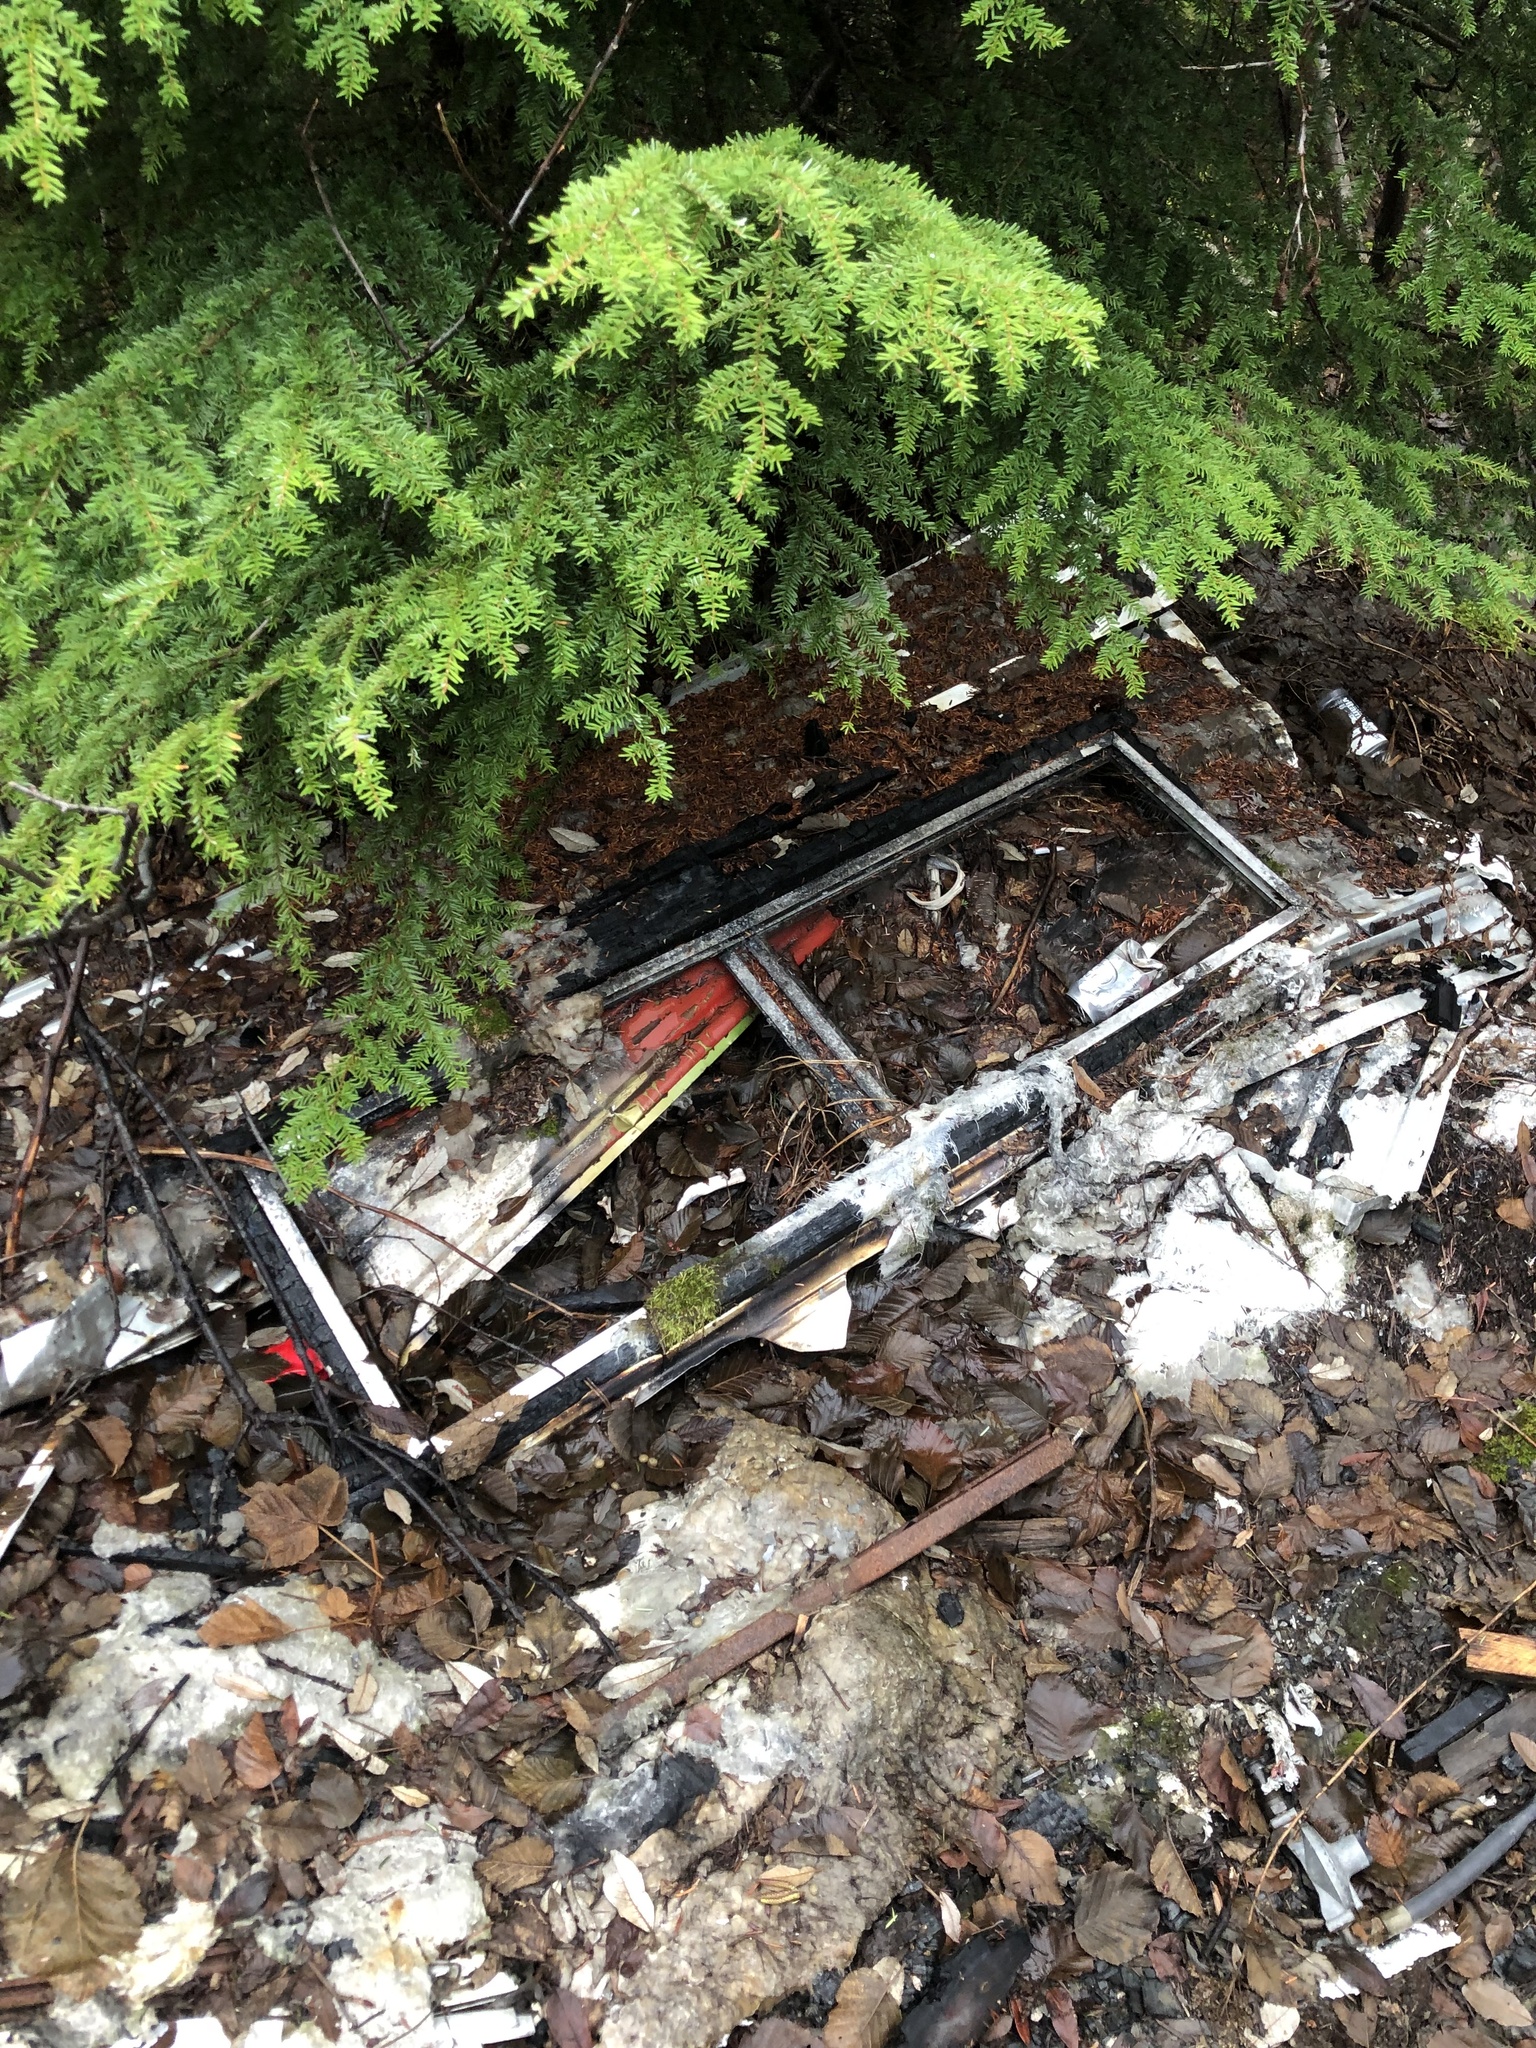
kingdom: Plantae
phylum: Tracheophyta
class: Pinopsida
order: Pinales
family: Pinaceae
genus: Tsuga
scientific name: Tsuga heterophylla
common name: Western hemlock
